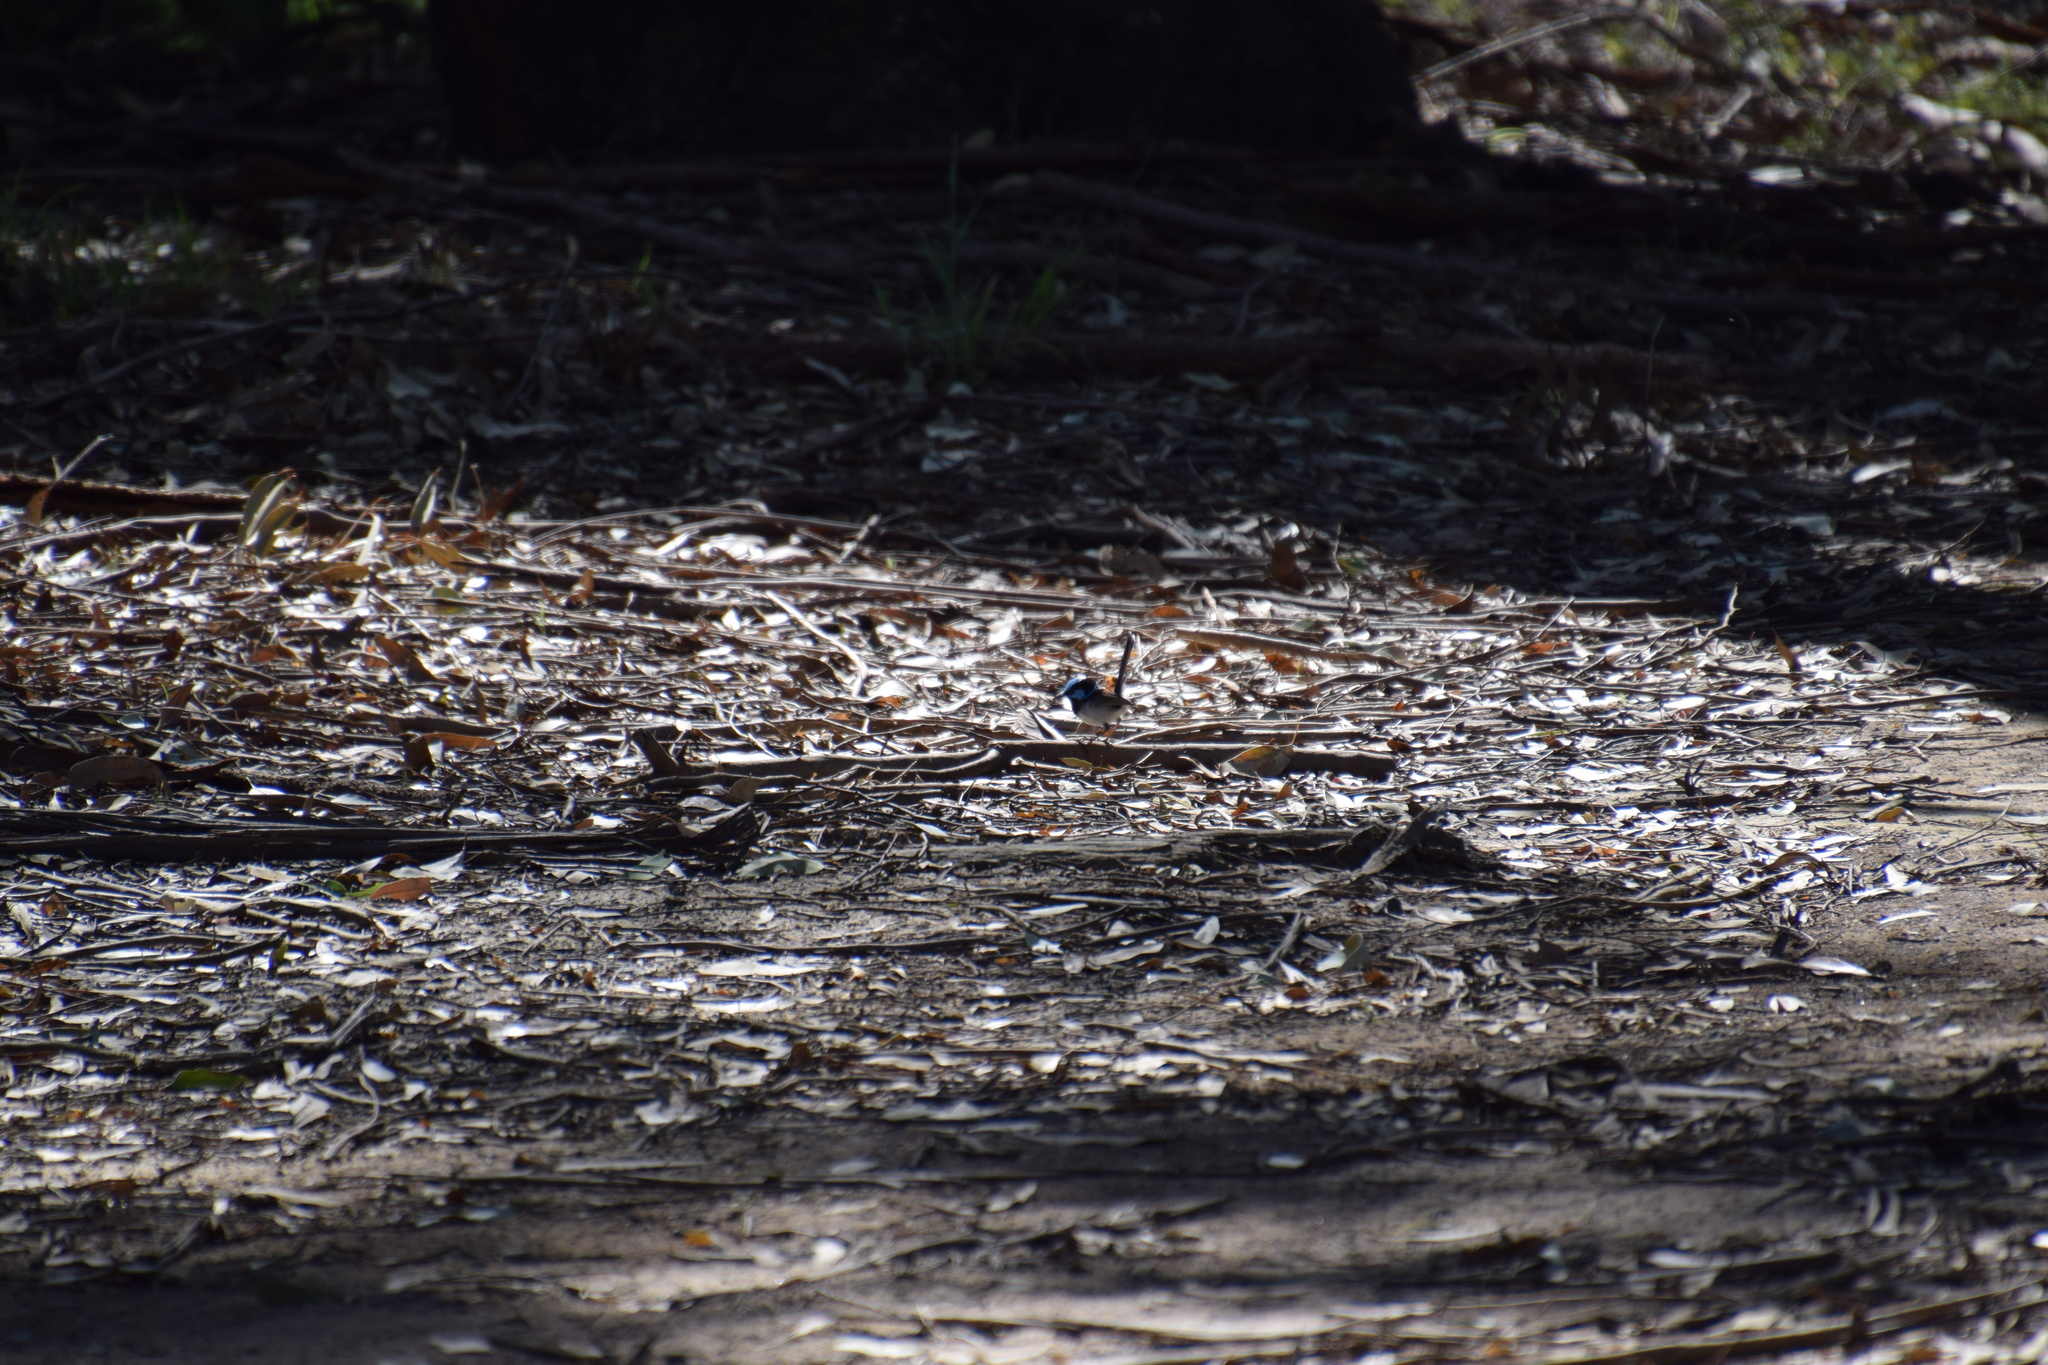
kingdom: Animalia
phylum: Chordata
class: Aves
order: Passeriformes
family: Maluridae
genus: Malurus
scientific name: Malurus cyaneus
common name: Superb fairywren
